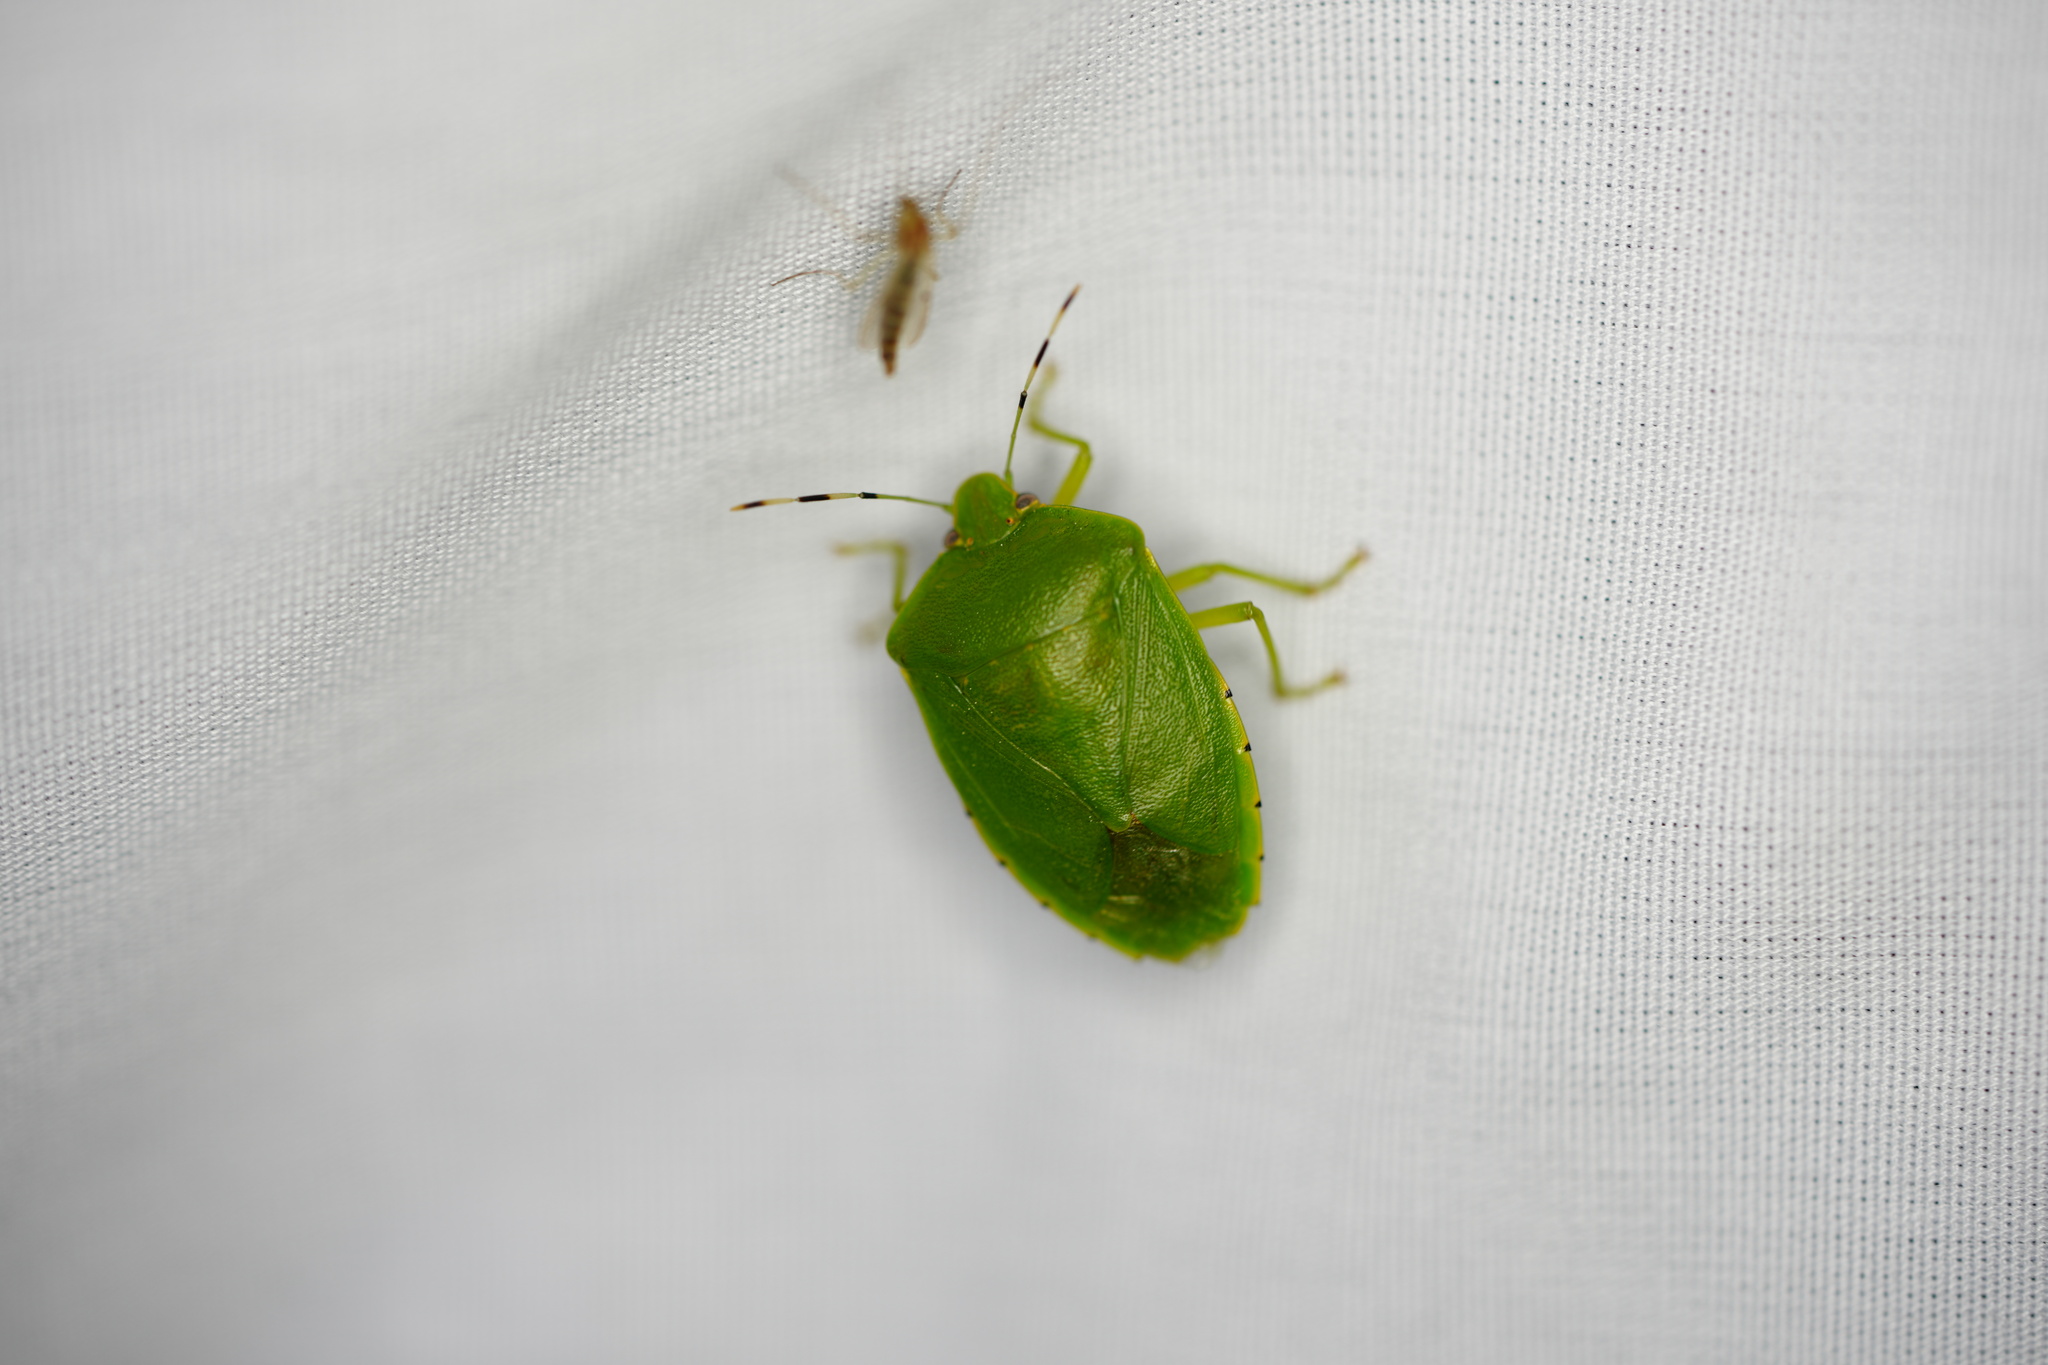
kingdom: Animalia
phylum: Arthropoda
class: Insecta
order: Hemiptera
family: Pentatomidae
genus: Chinavia
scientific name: Chinavia hilaris
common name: Green stink bug
